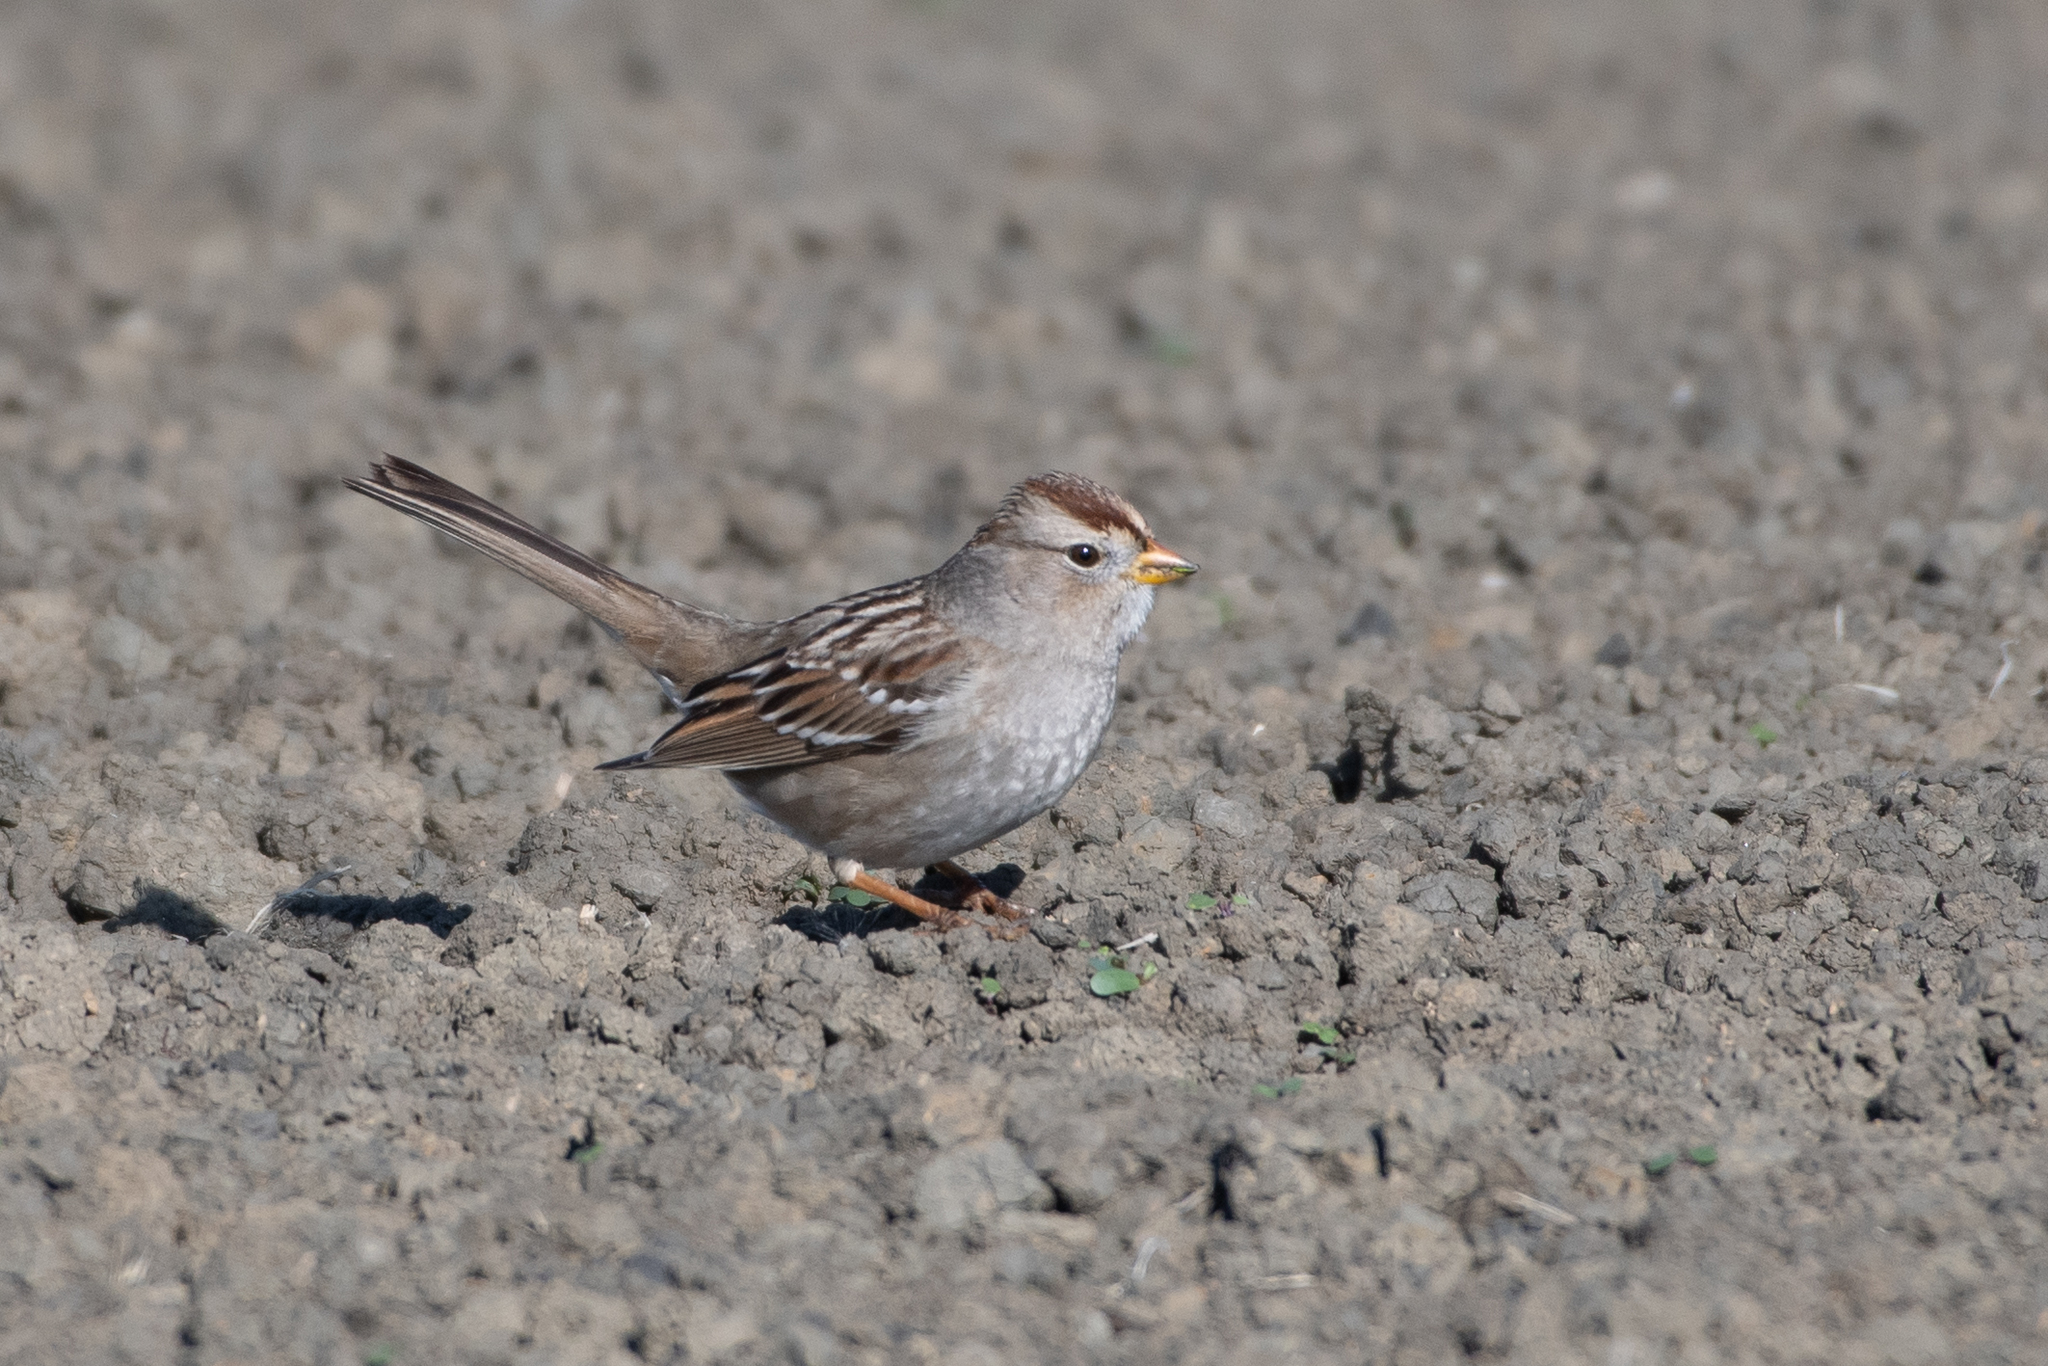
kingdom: Animalia
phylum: Chordata
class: Aves
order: Passeriformes
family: Passerellidae
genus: Zonotrichia
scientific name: Zonotrichia leucophrys
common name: White-crowned sparrow
